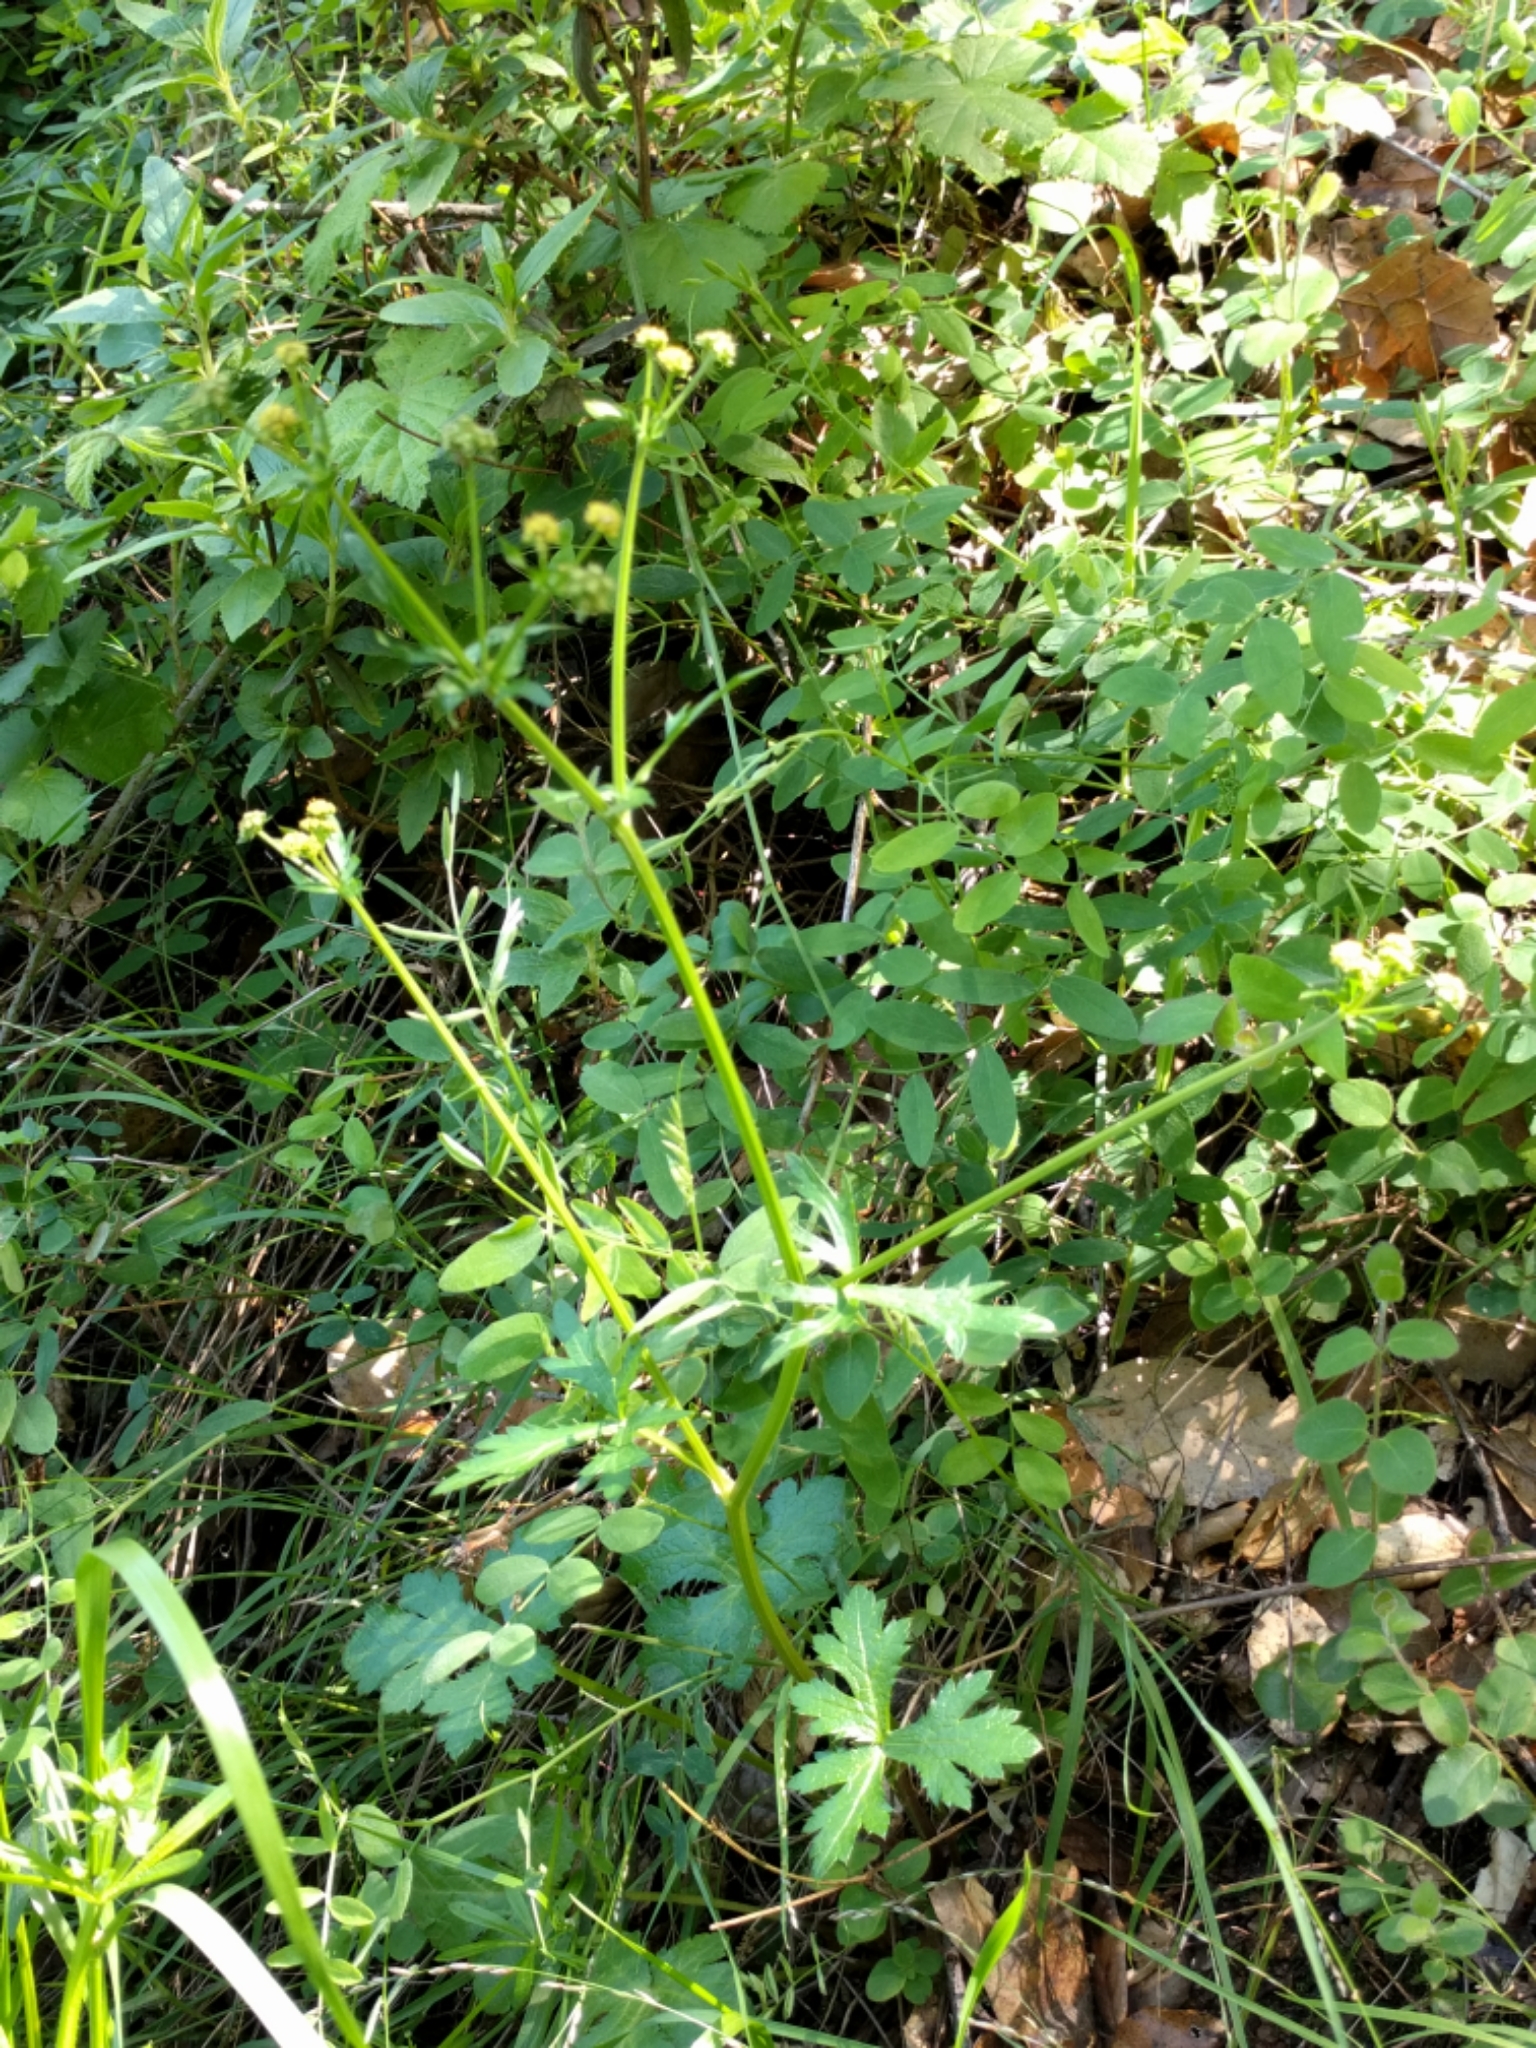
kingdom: Plantae
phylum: Tracheophyta
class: Magnoliopsida
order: Apiales
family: Apiaceae
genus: Sanicula
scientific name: Sanicula crassicaulis
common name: Western snakeroot
